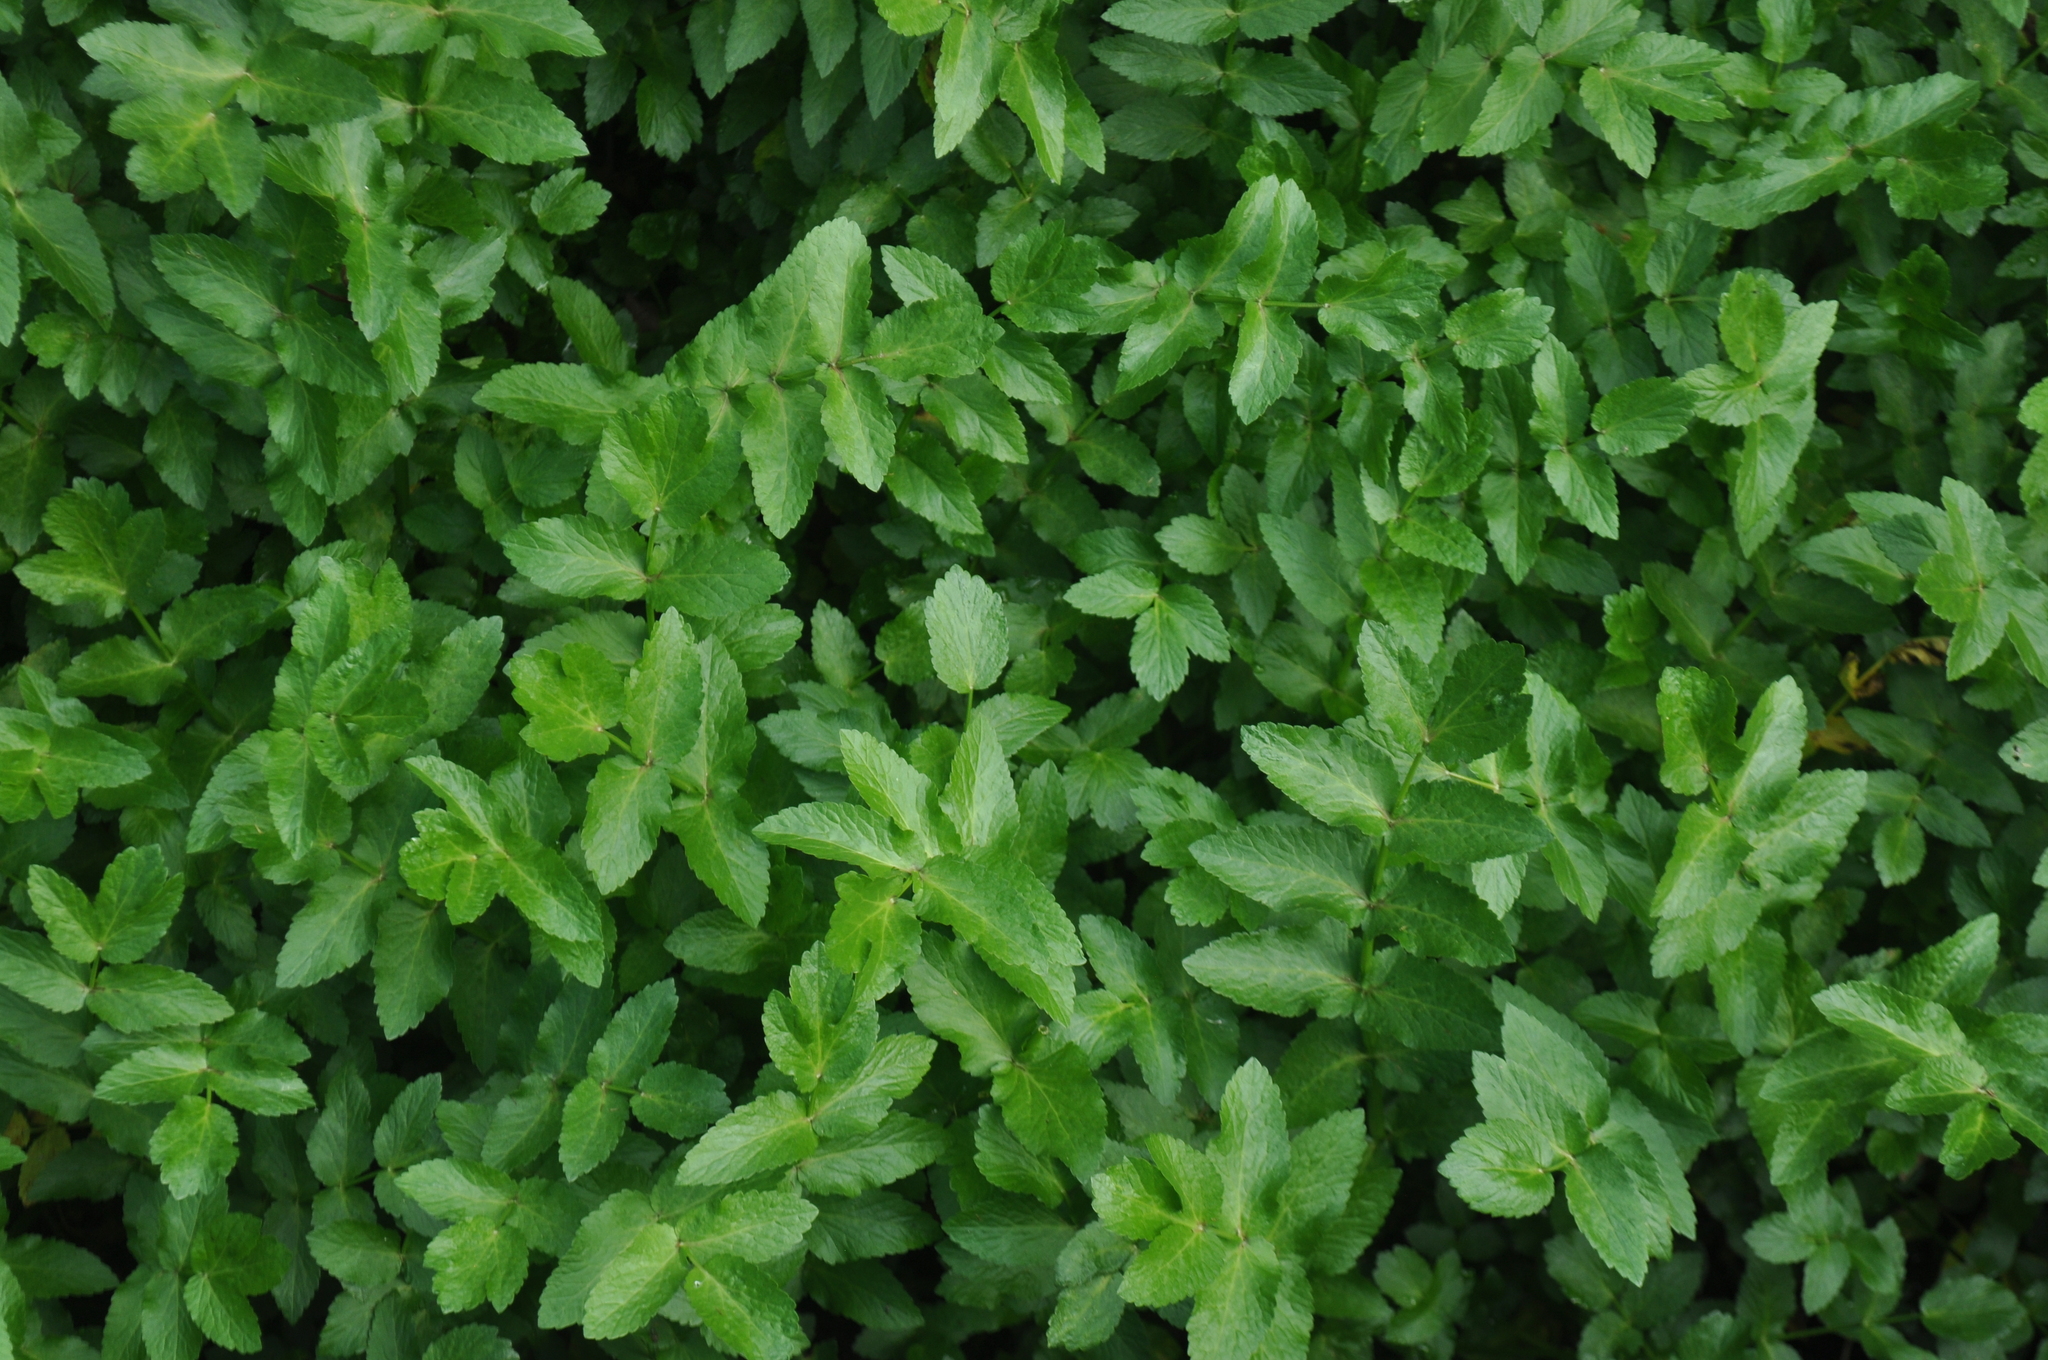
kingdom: Plantae
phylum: Tracheophyta
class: Magnoliopsida
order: Apiales
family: Apiaceae
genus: Helosciadium
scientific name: Helosciadium nodiflorum
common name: Fool's-watercress
